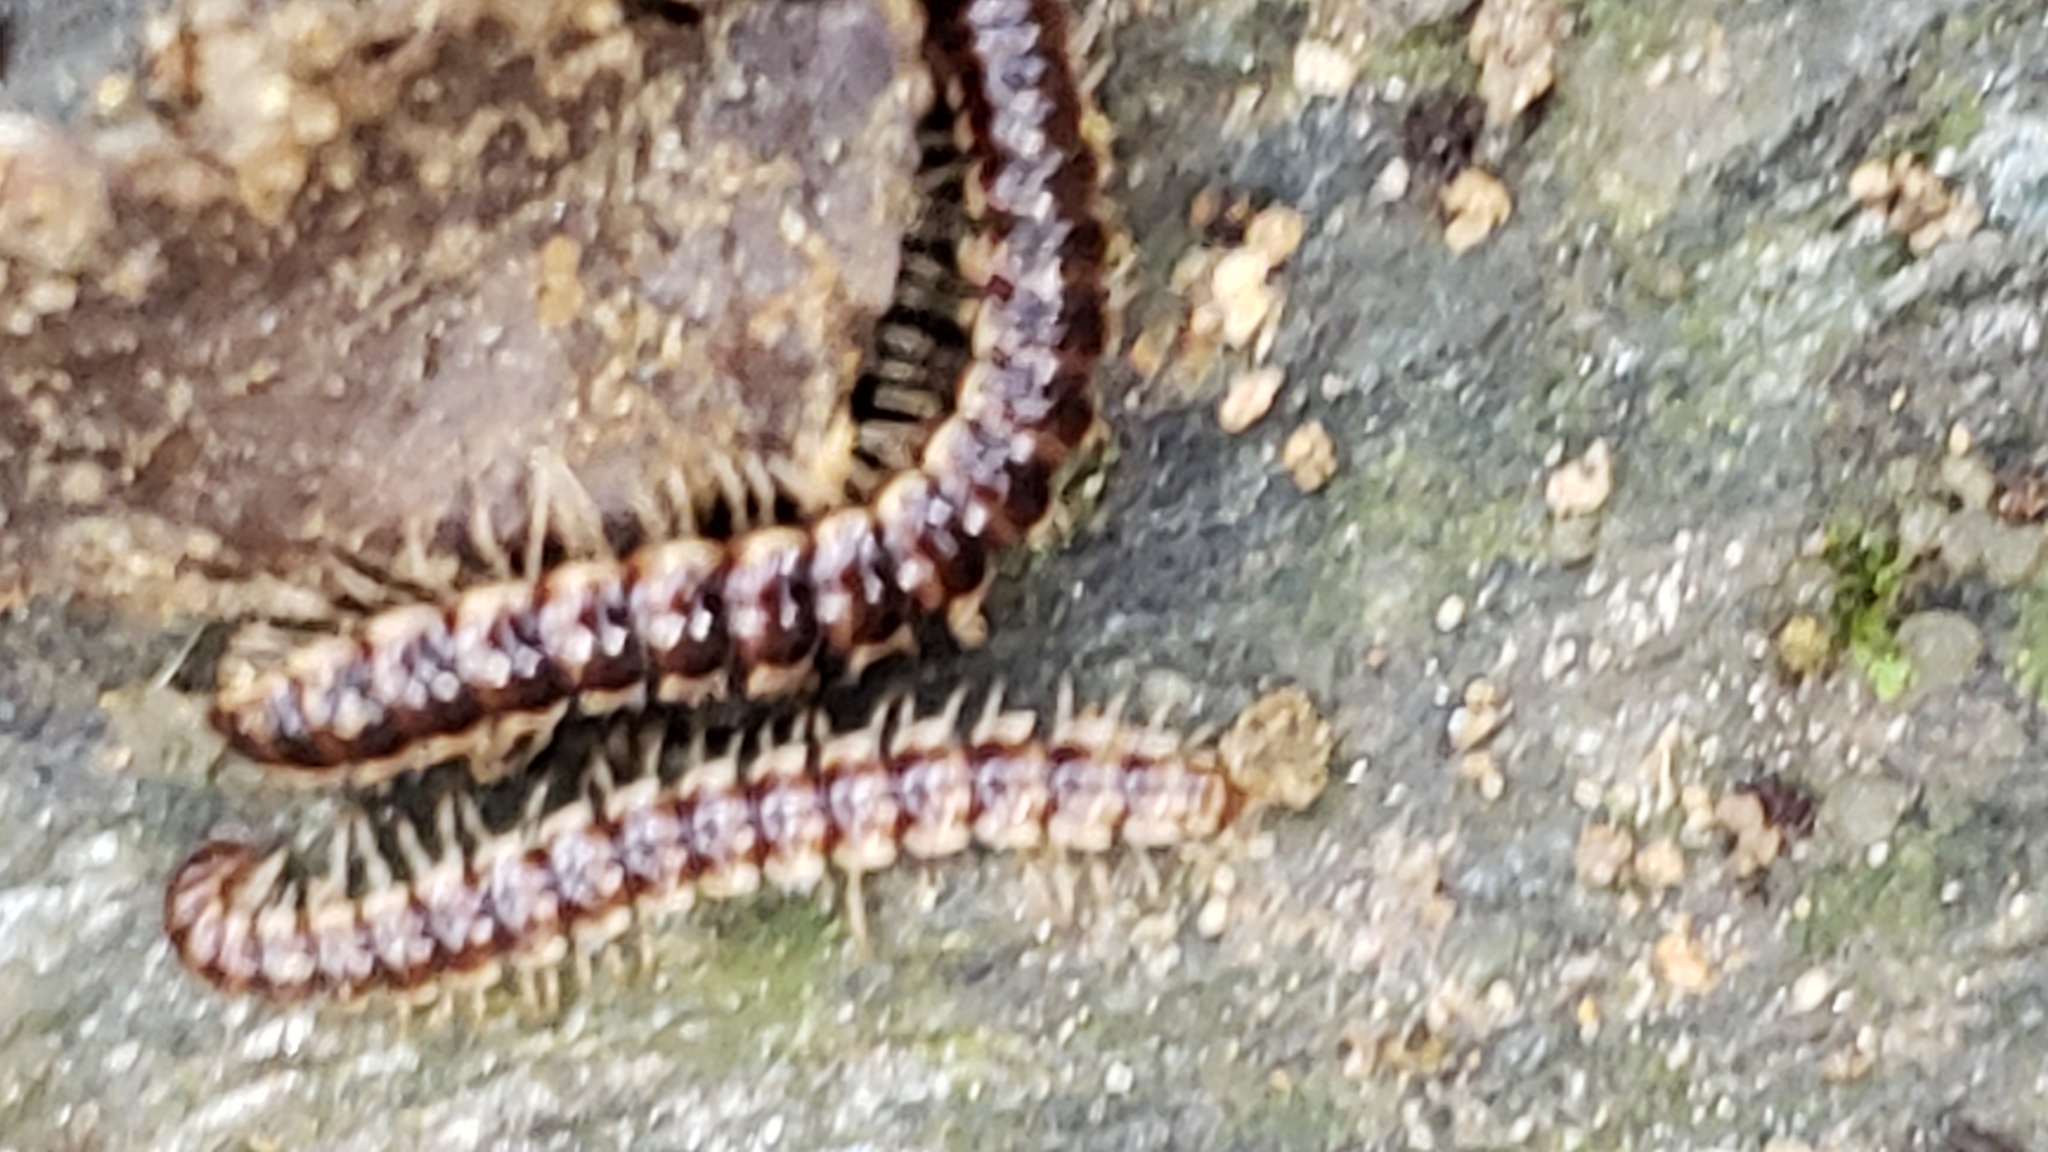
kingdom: Animalia
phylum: Arthropoda
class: Diplopoda
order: Polydesmida
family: Paradoxosomatidae
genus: Oxidus
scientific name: Oxidus gracilis
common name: Greenhouse millipede
